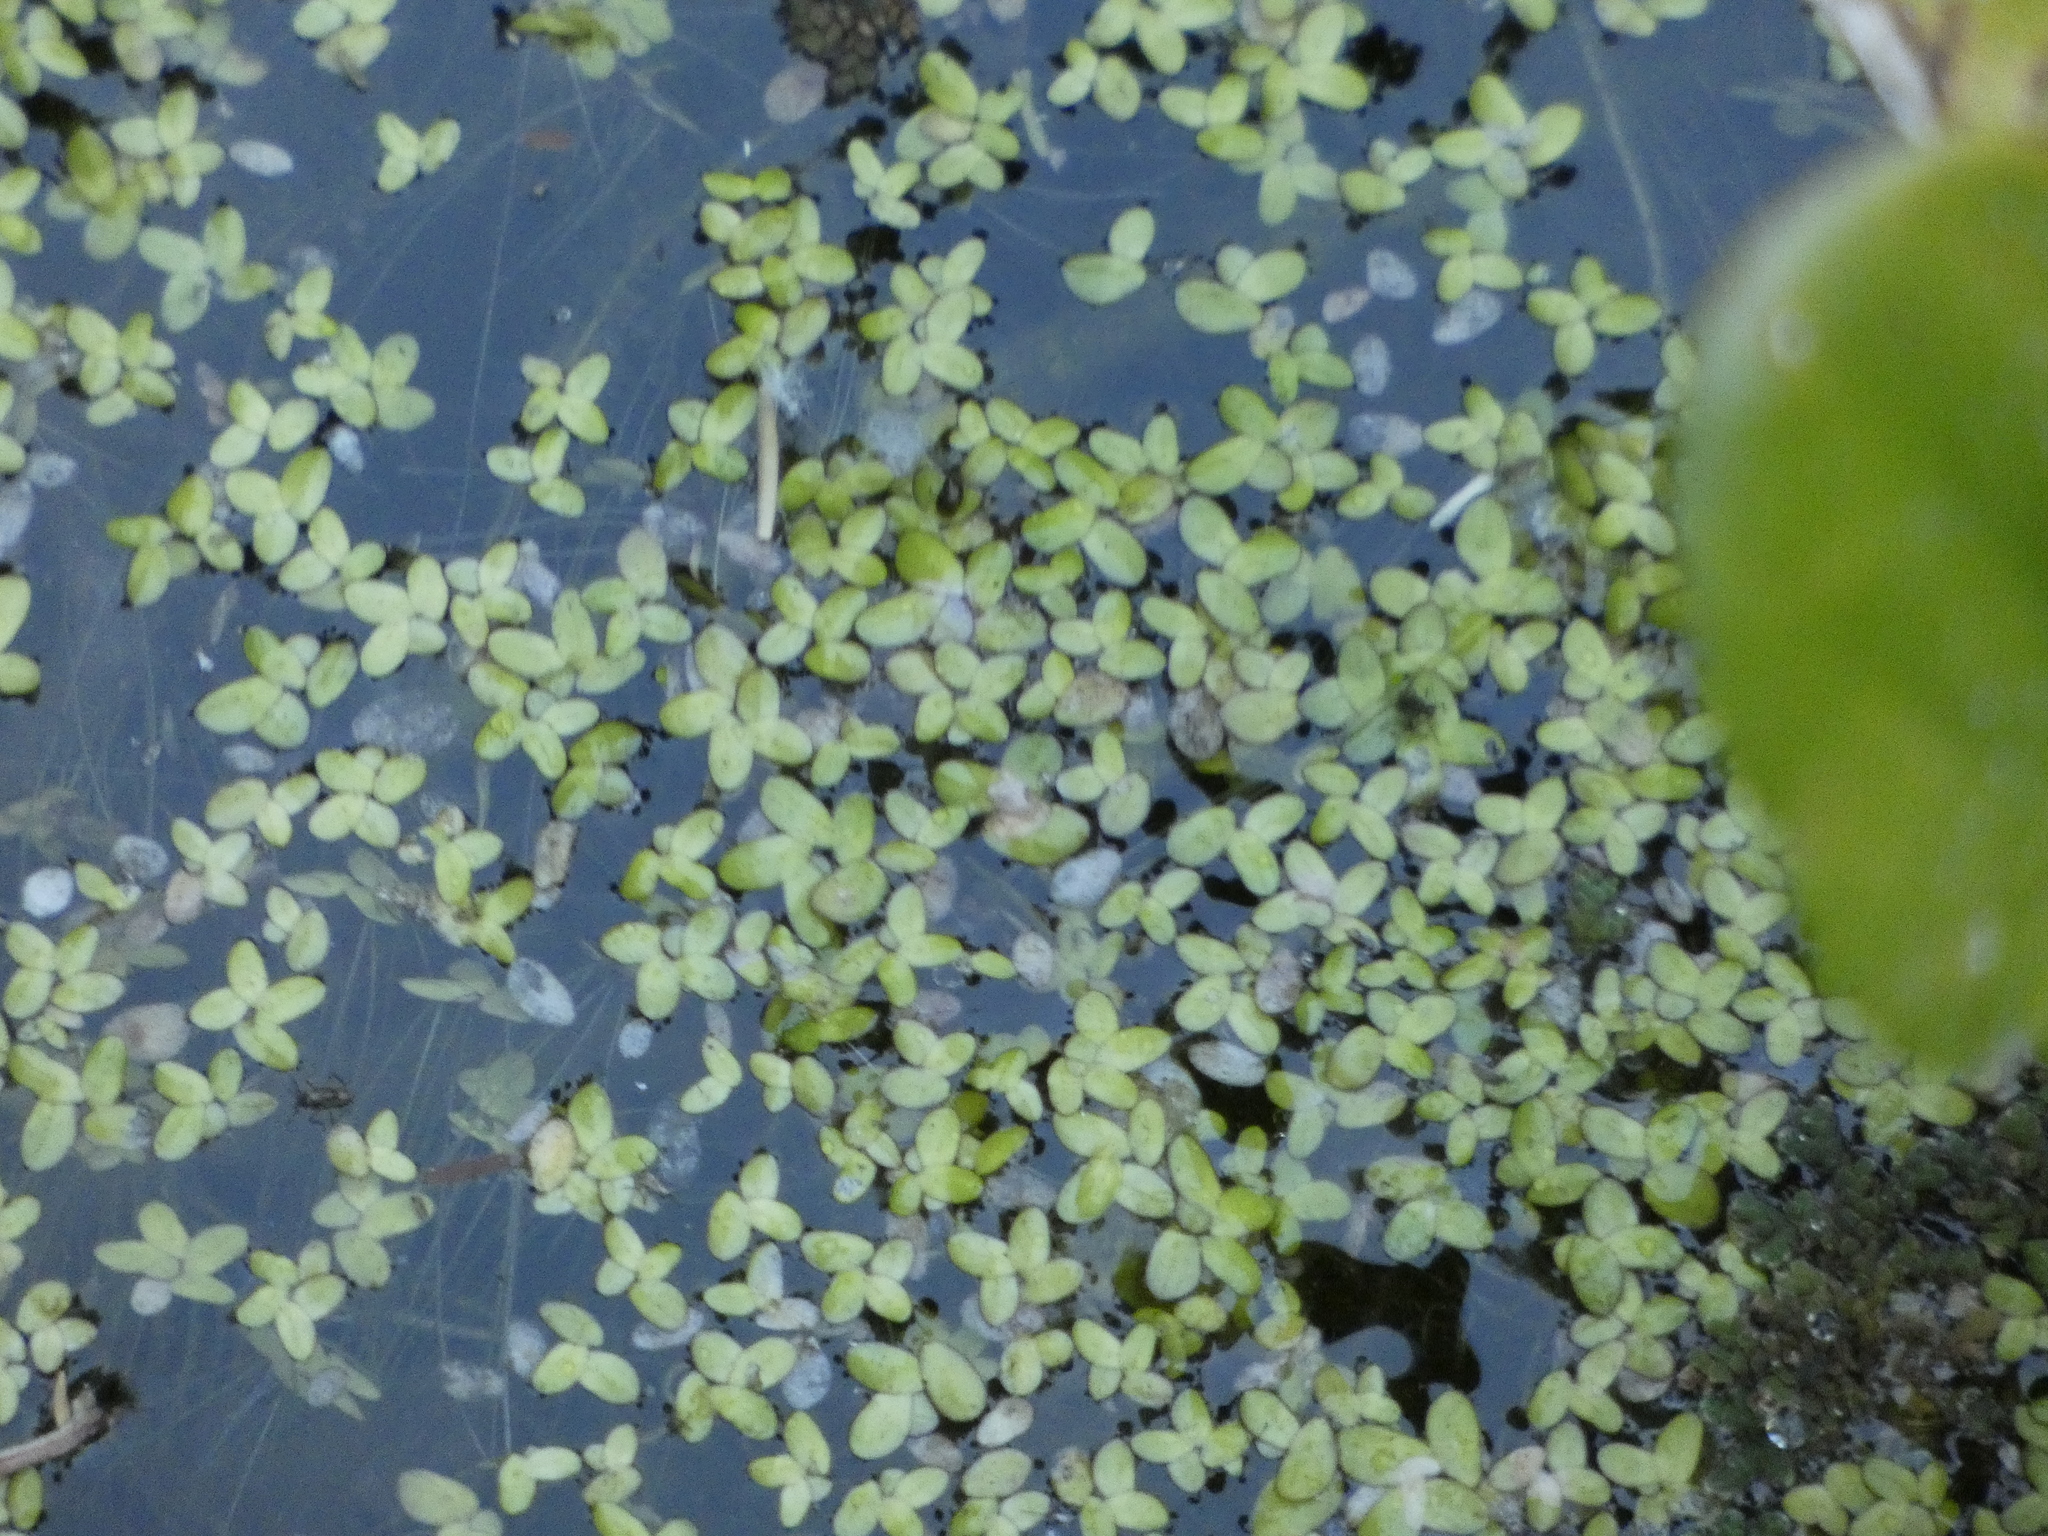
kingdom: Plantae
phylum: Tracheophyta
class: Liliopsida
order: Alismatales
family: Araceae
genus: Lemna
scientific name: Lemna minor
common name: Common duckweed
